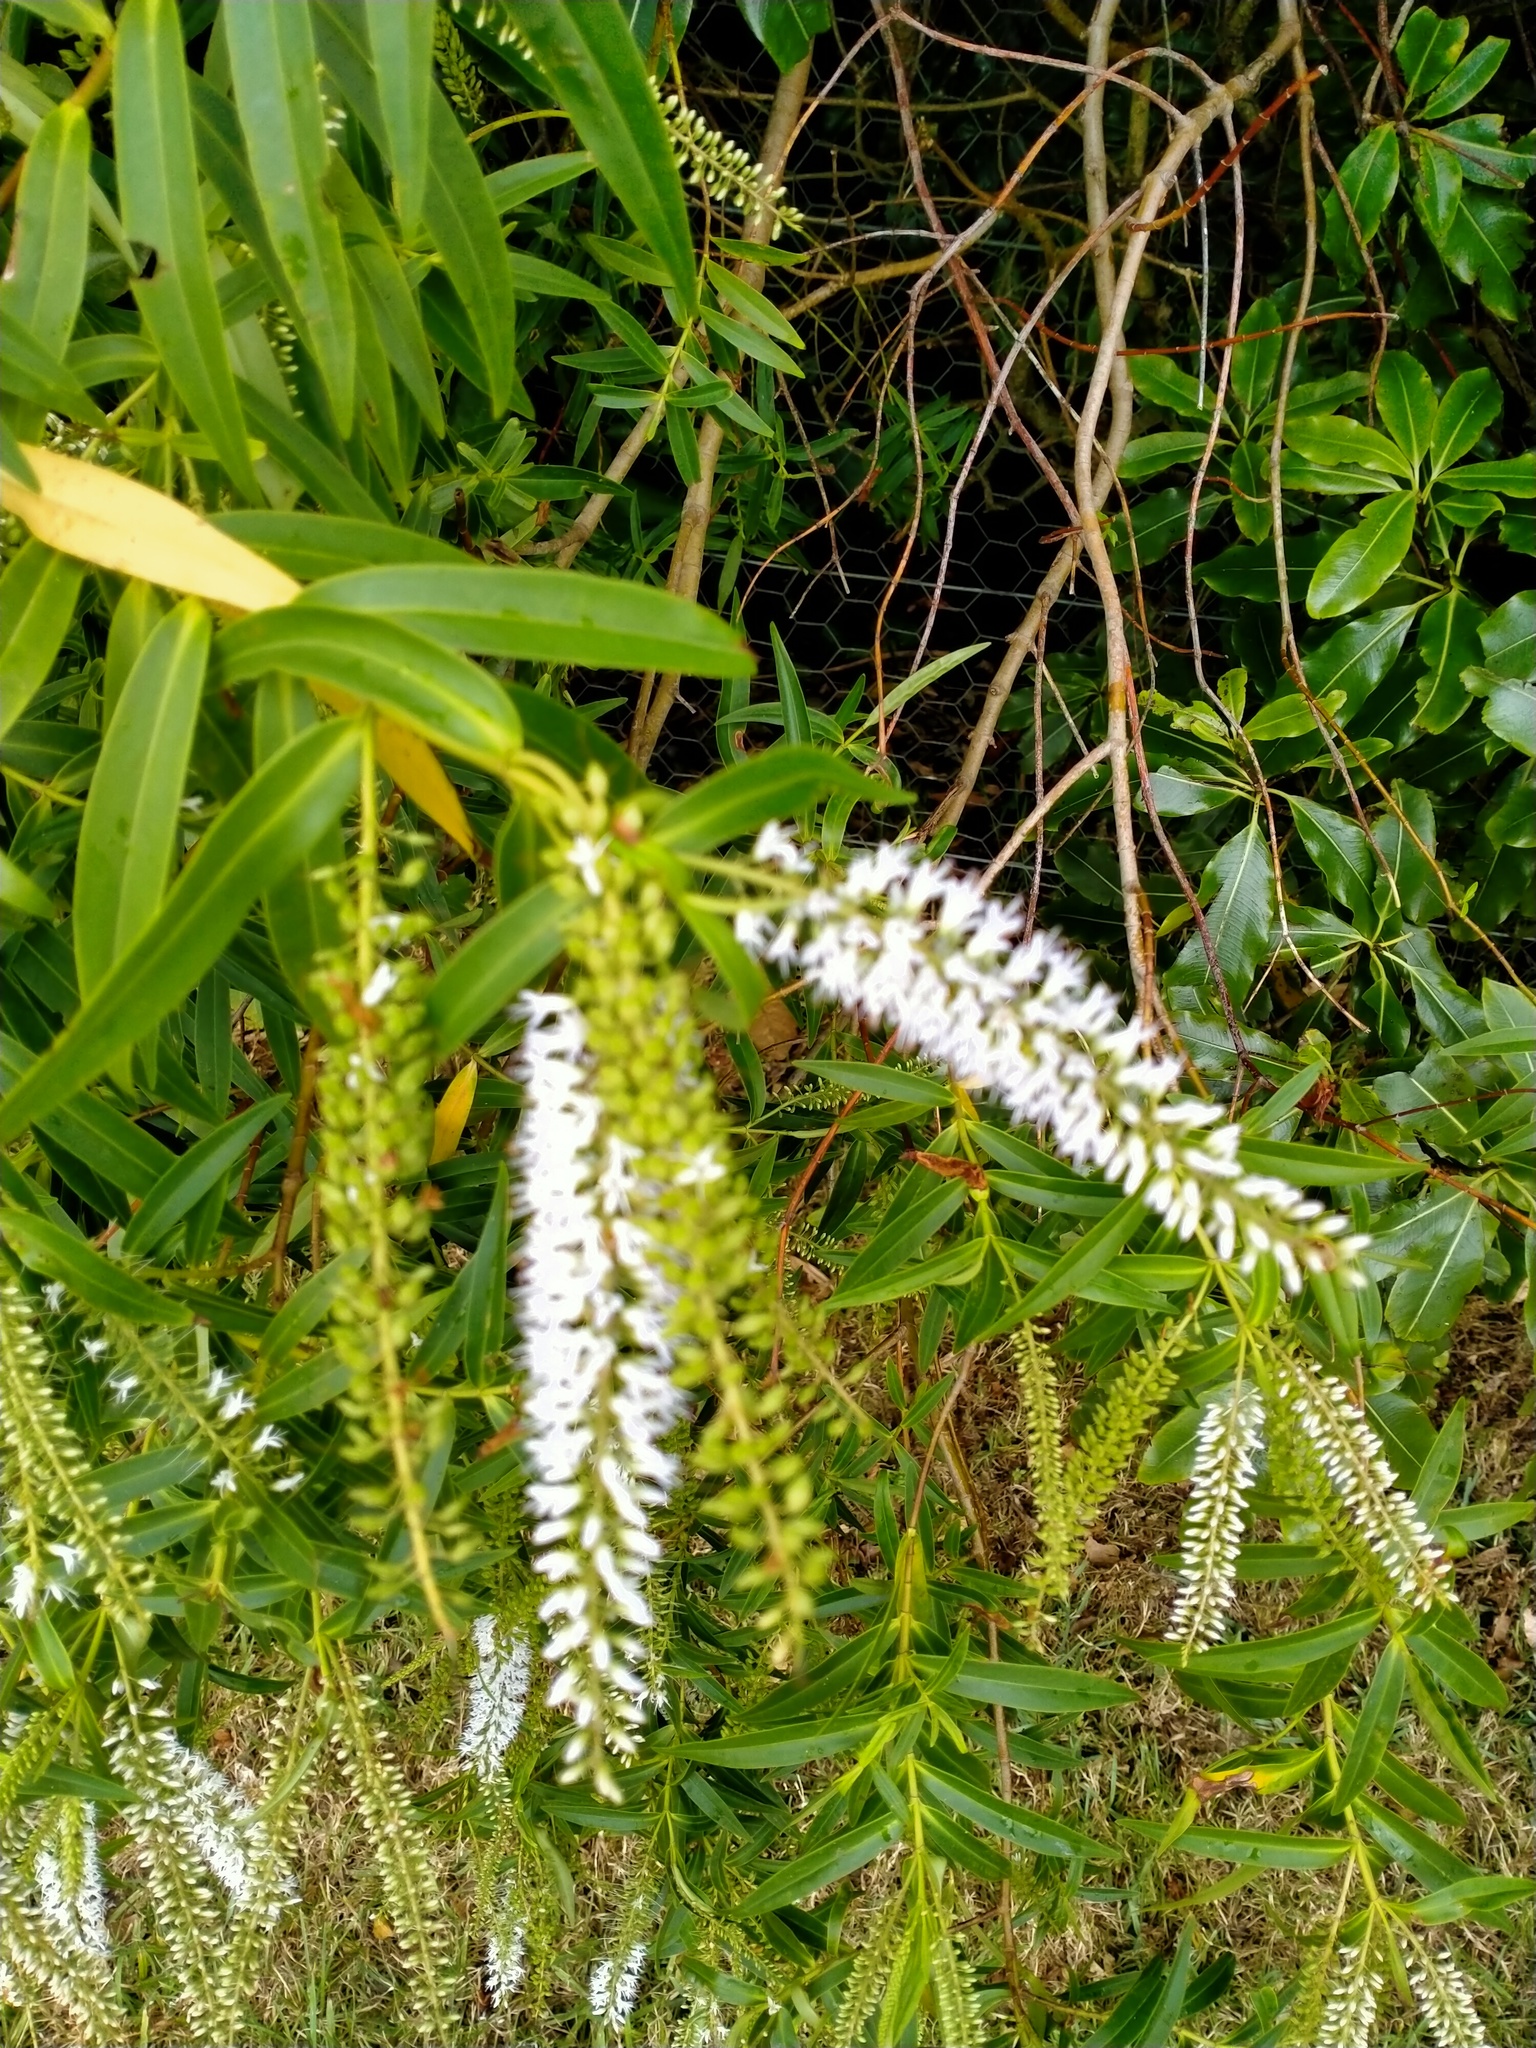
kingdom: Plantae
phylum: Tracheophyta
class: Magnoliopsida
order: Lamiales
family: Plantaginaceae
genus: Veronica
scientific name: Veronica stricta
